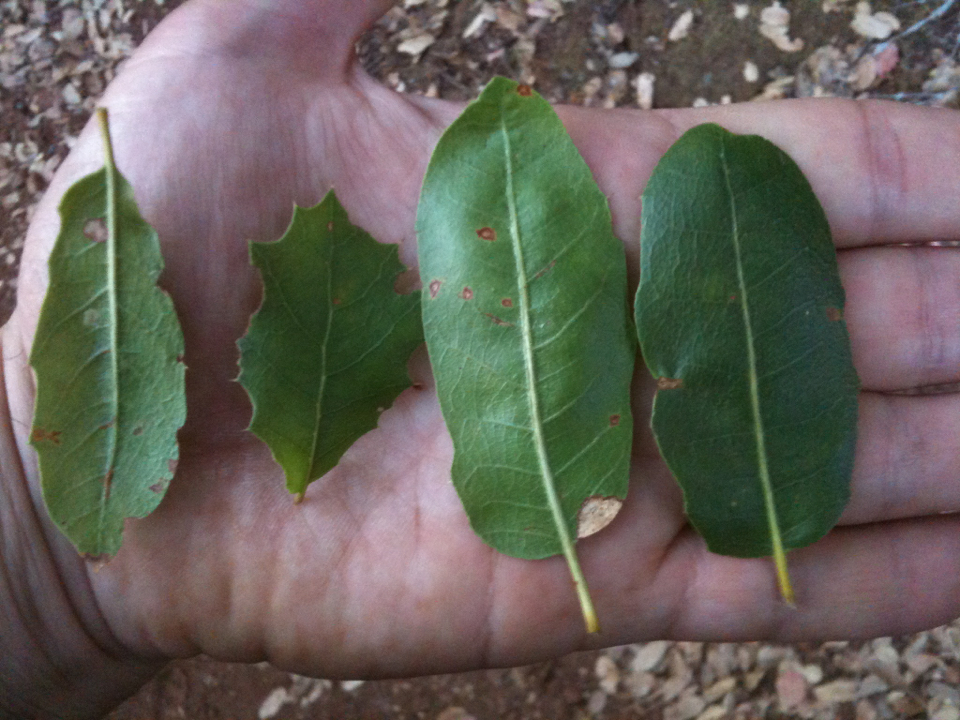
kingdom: Plantae
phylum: Tracheophyta
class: Magnoliopsida
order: Fagales
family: Fagaceae
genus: Quercus
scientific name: Quercus wislizeni
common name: Interior live oak
